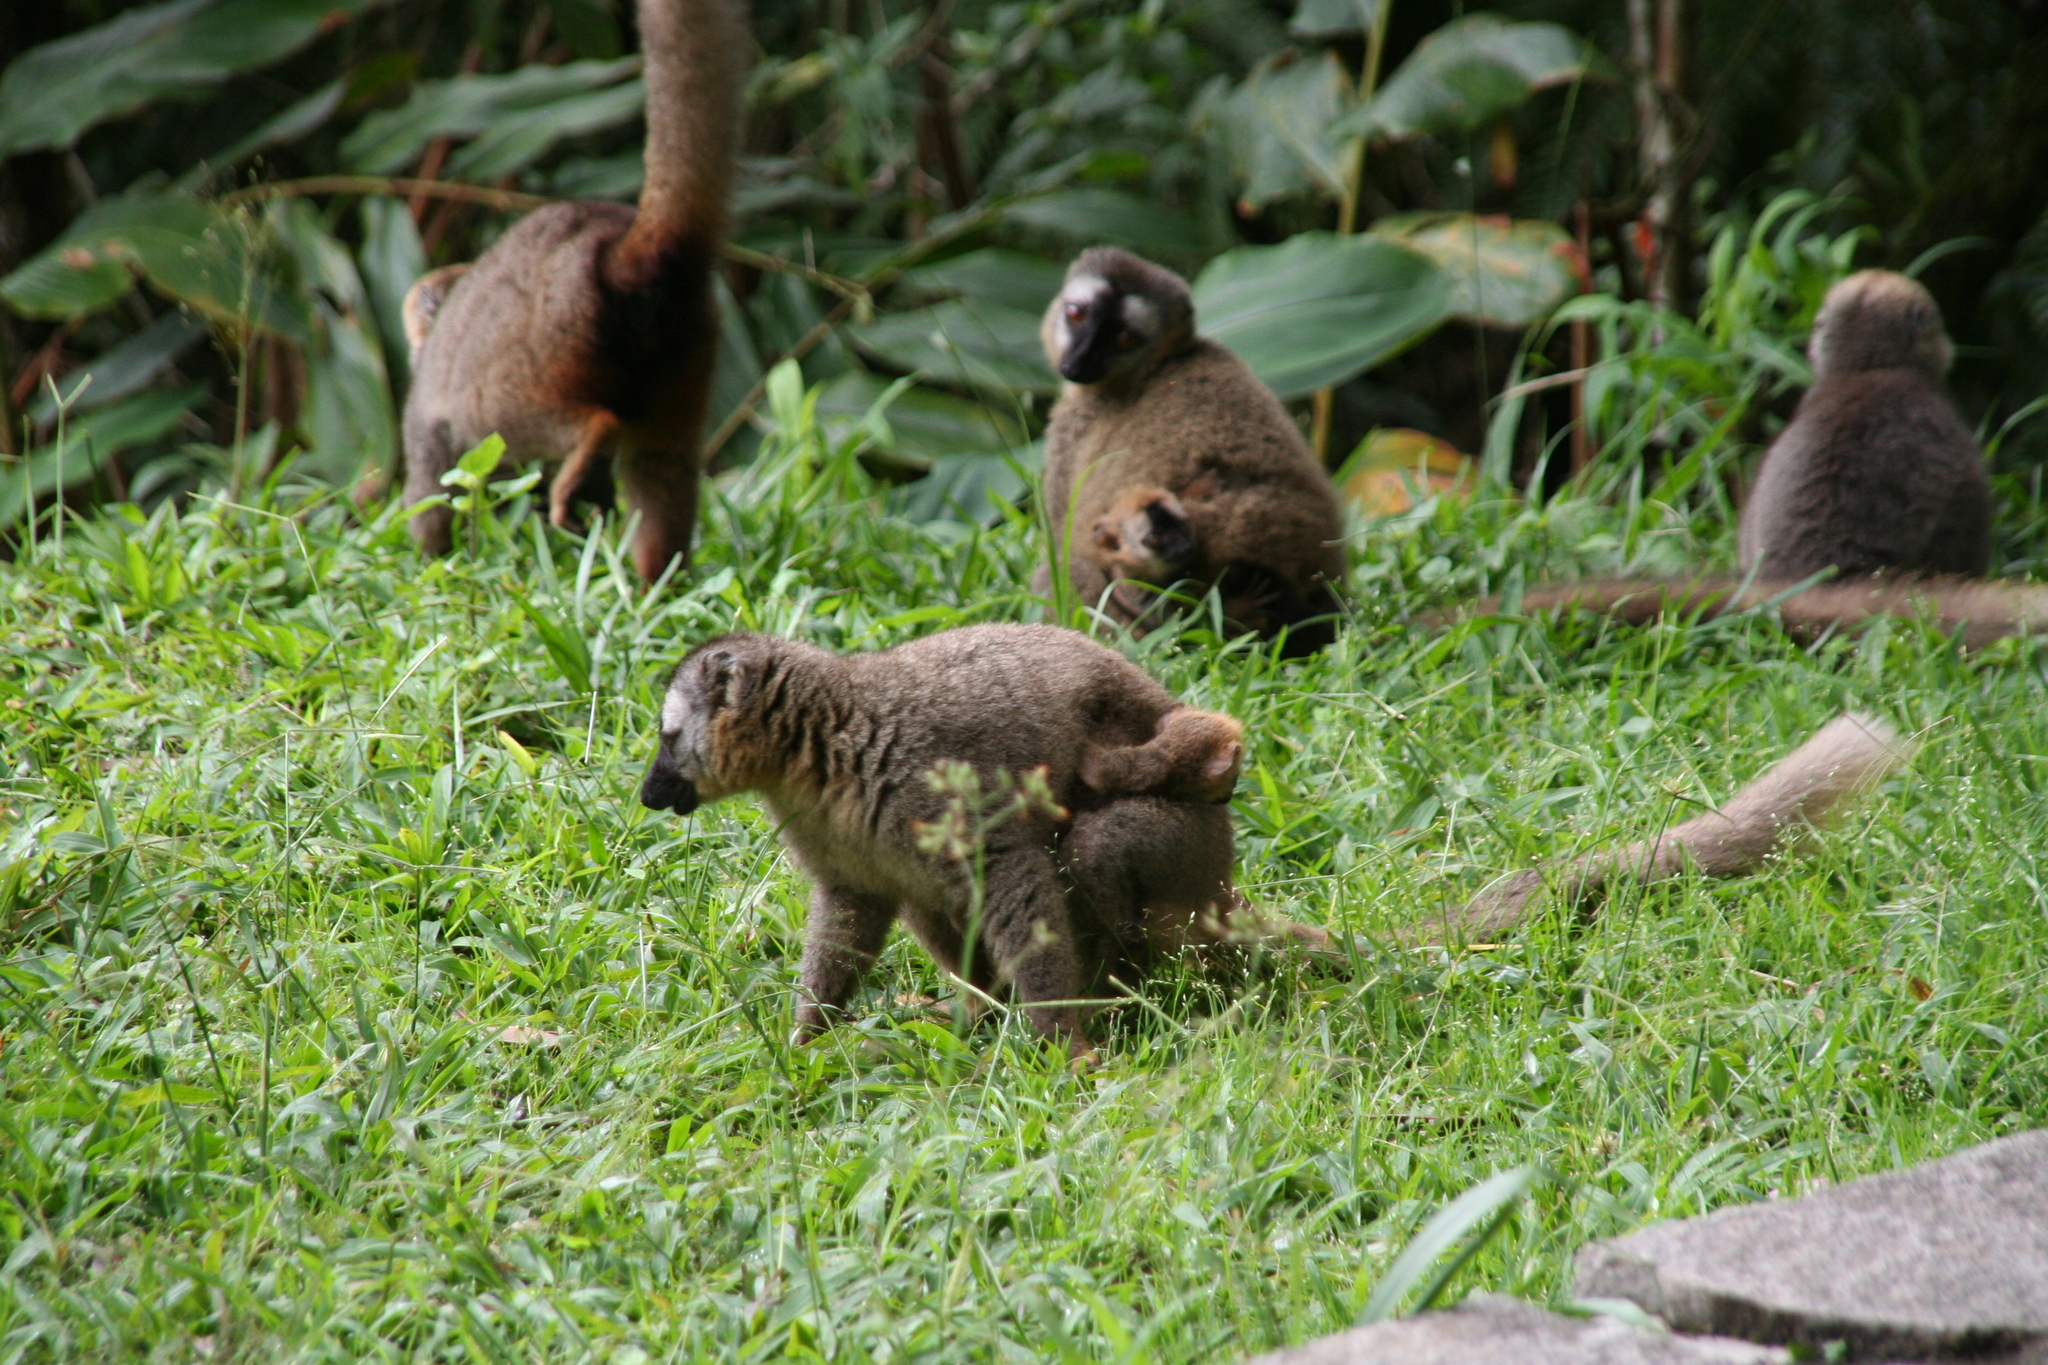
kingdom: Animalia
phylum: Chordata
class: Mammalia
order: Primates
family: Lemuridae
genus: Eulemur
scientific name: Eulemur rufifrons
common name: Red-fronted brown lemur
